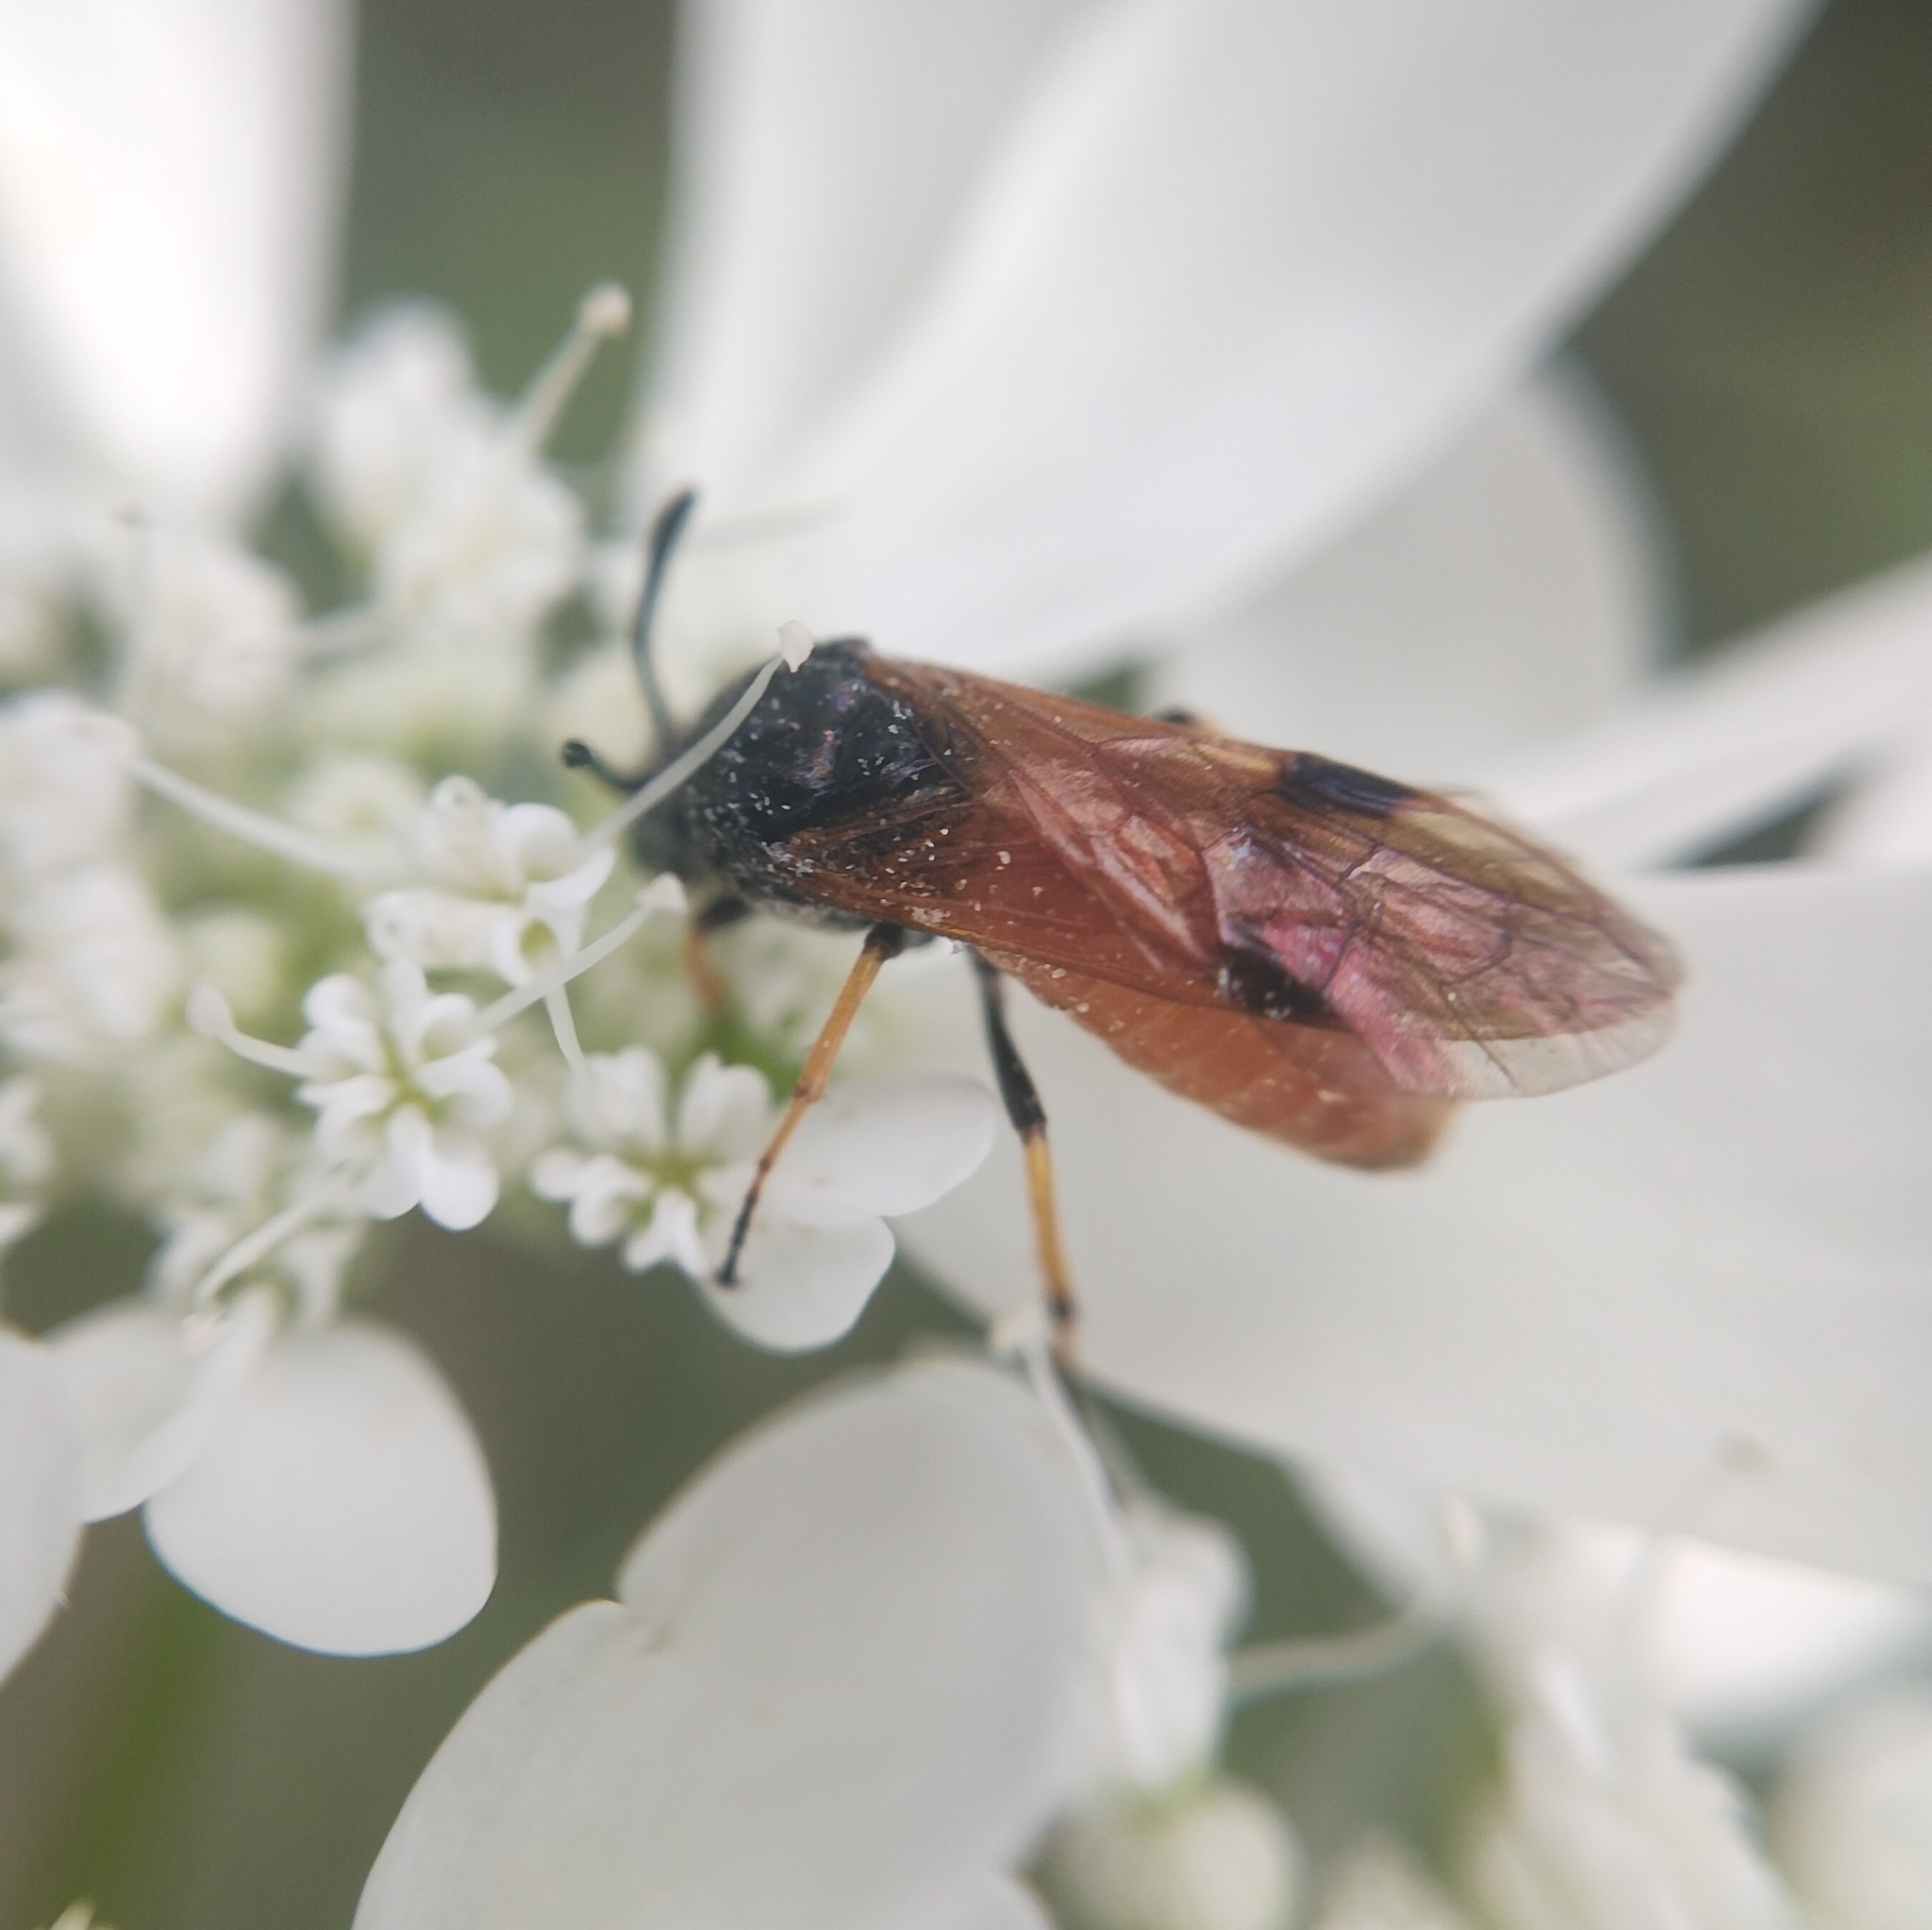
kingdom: Animalia
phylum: Arthropoda
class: Insecta
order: Hymenoptera
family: Argidae
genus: Arge
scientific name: Arge melanochra
